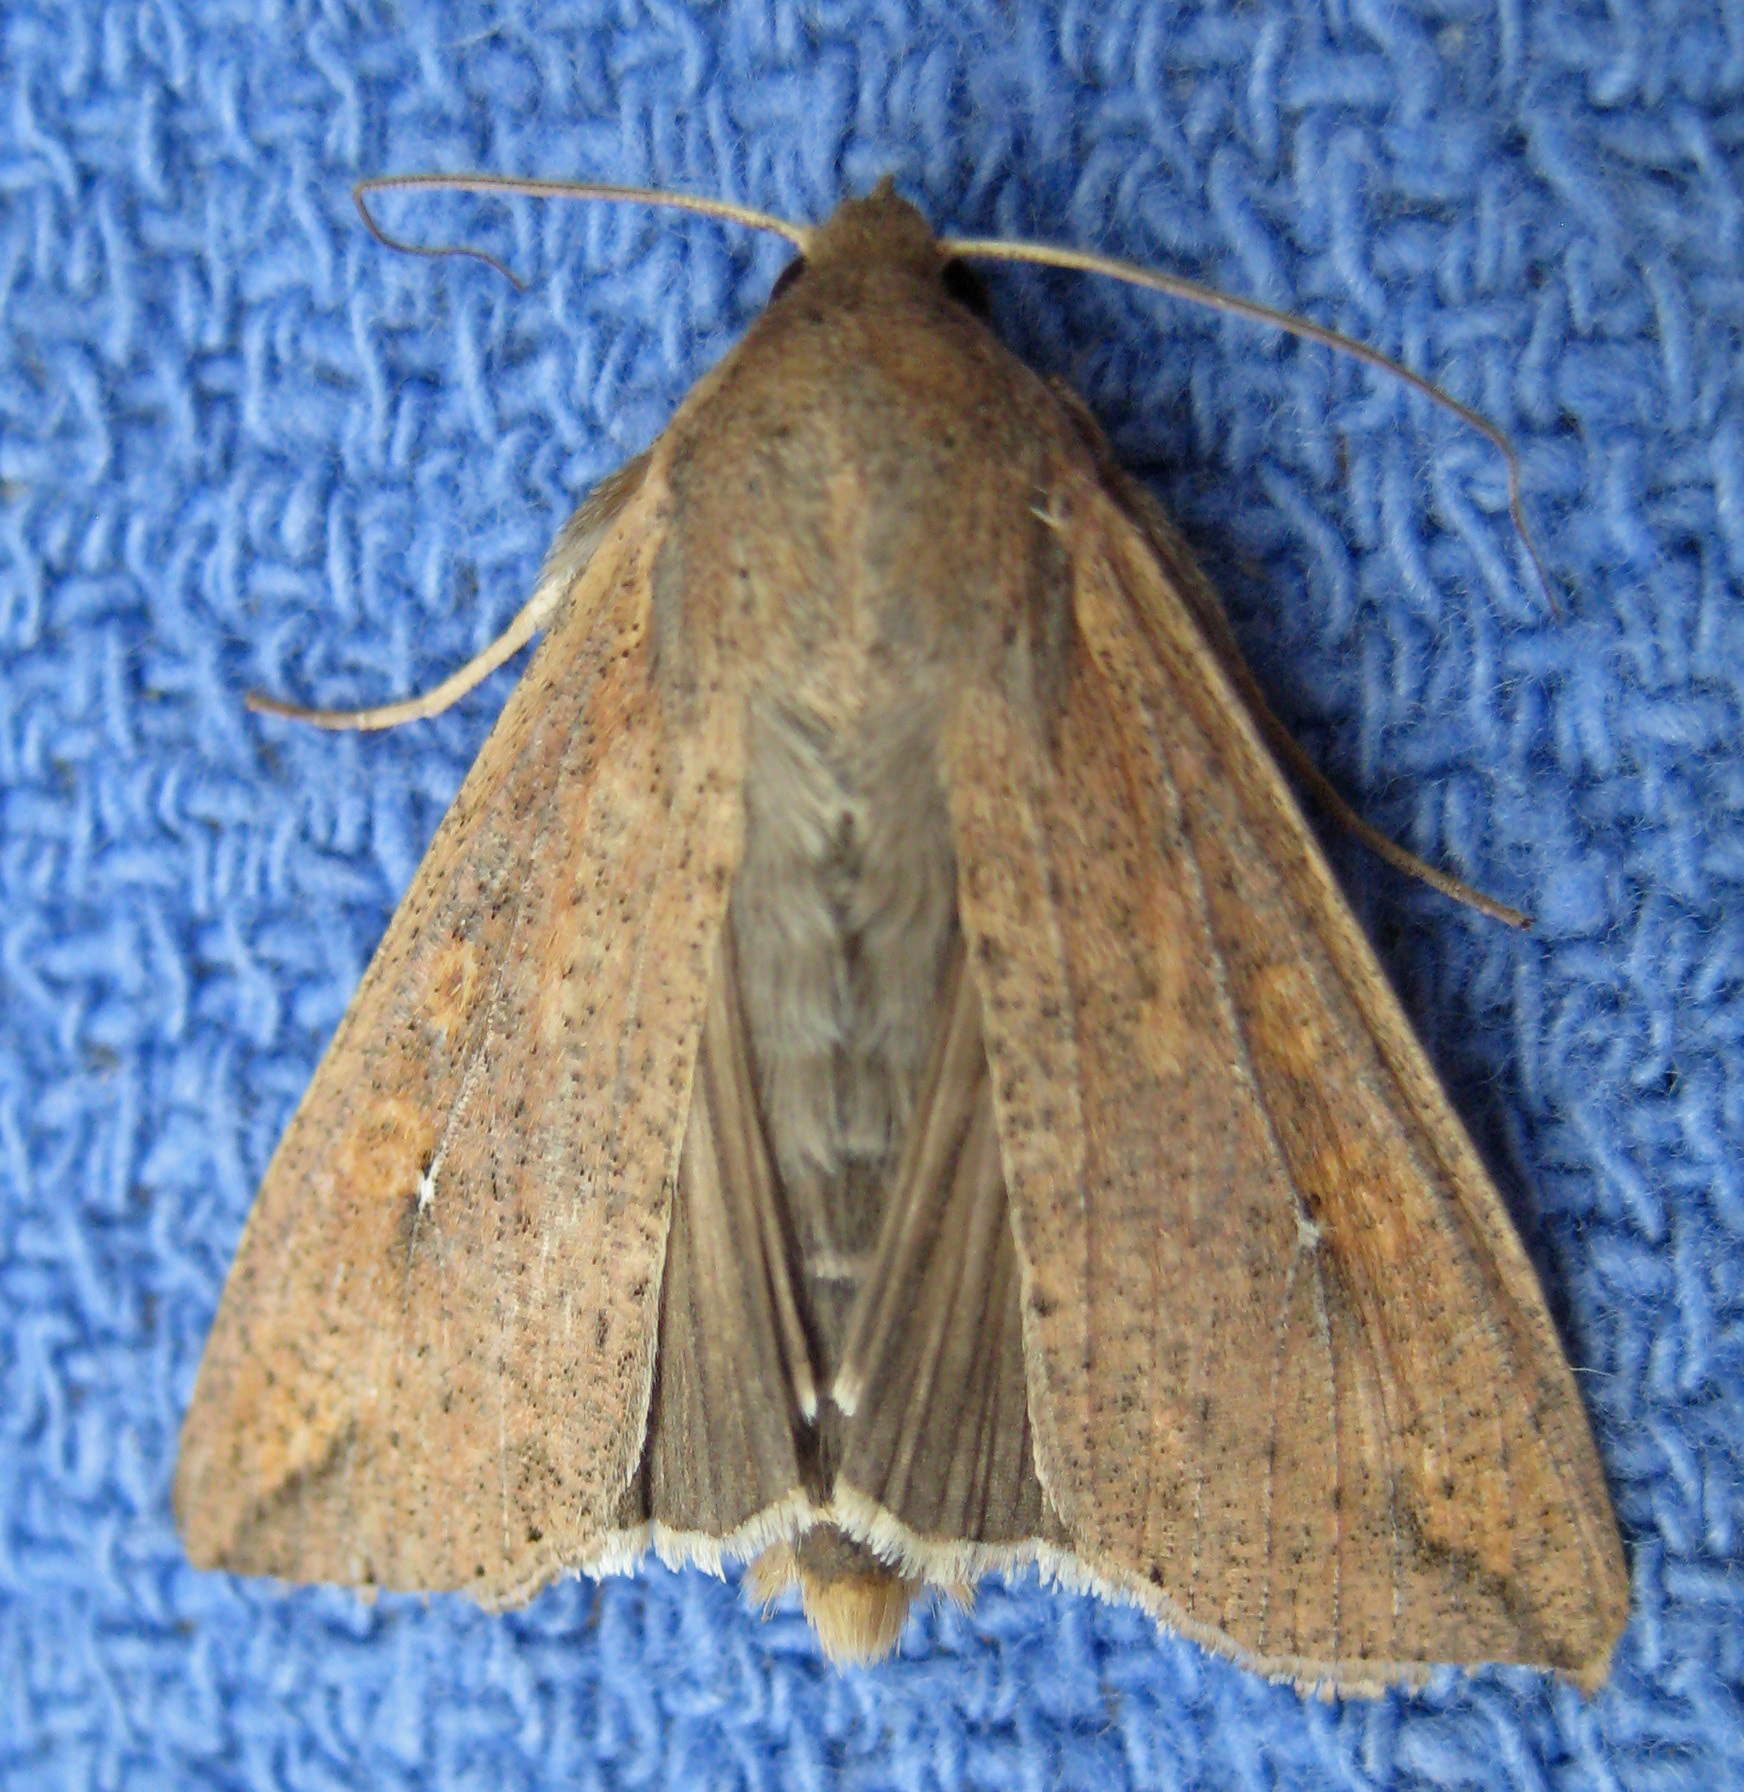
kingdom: Animalia
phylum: Arthropoda
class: Insecta
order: Lepidoptera
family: Noctuidae
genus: Mythimna
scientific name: Mythimna unipuncta
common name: White-speck
